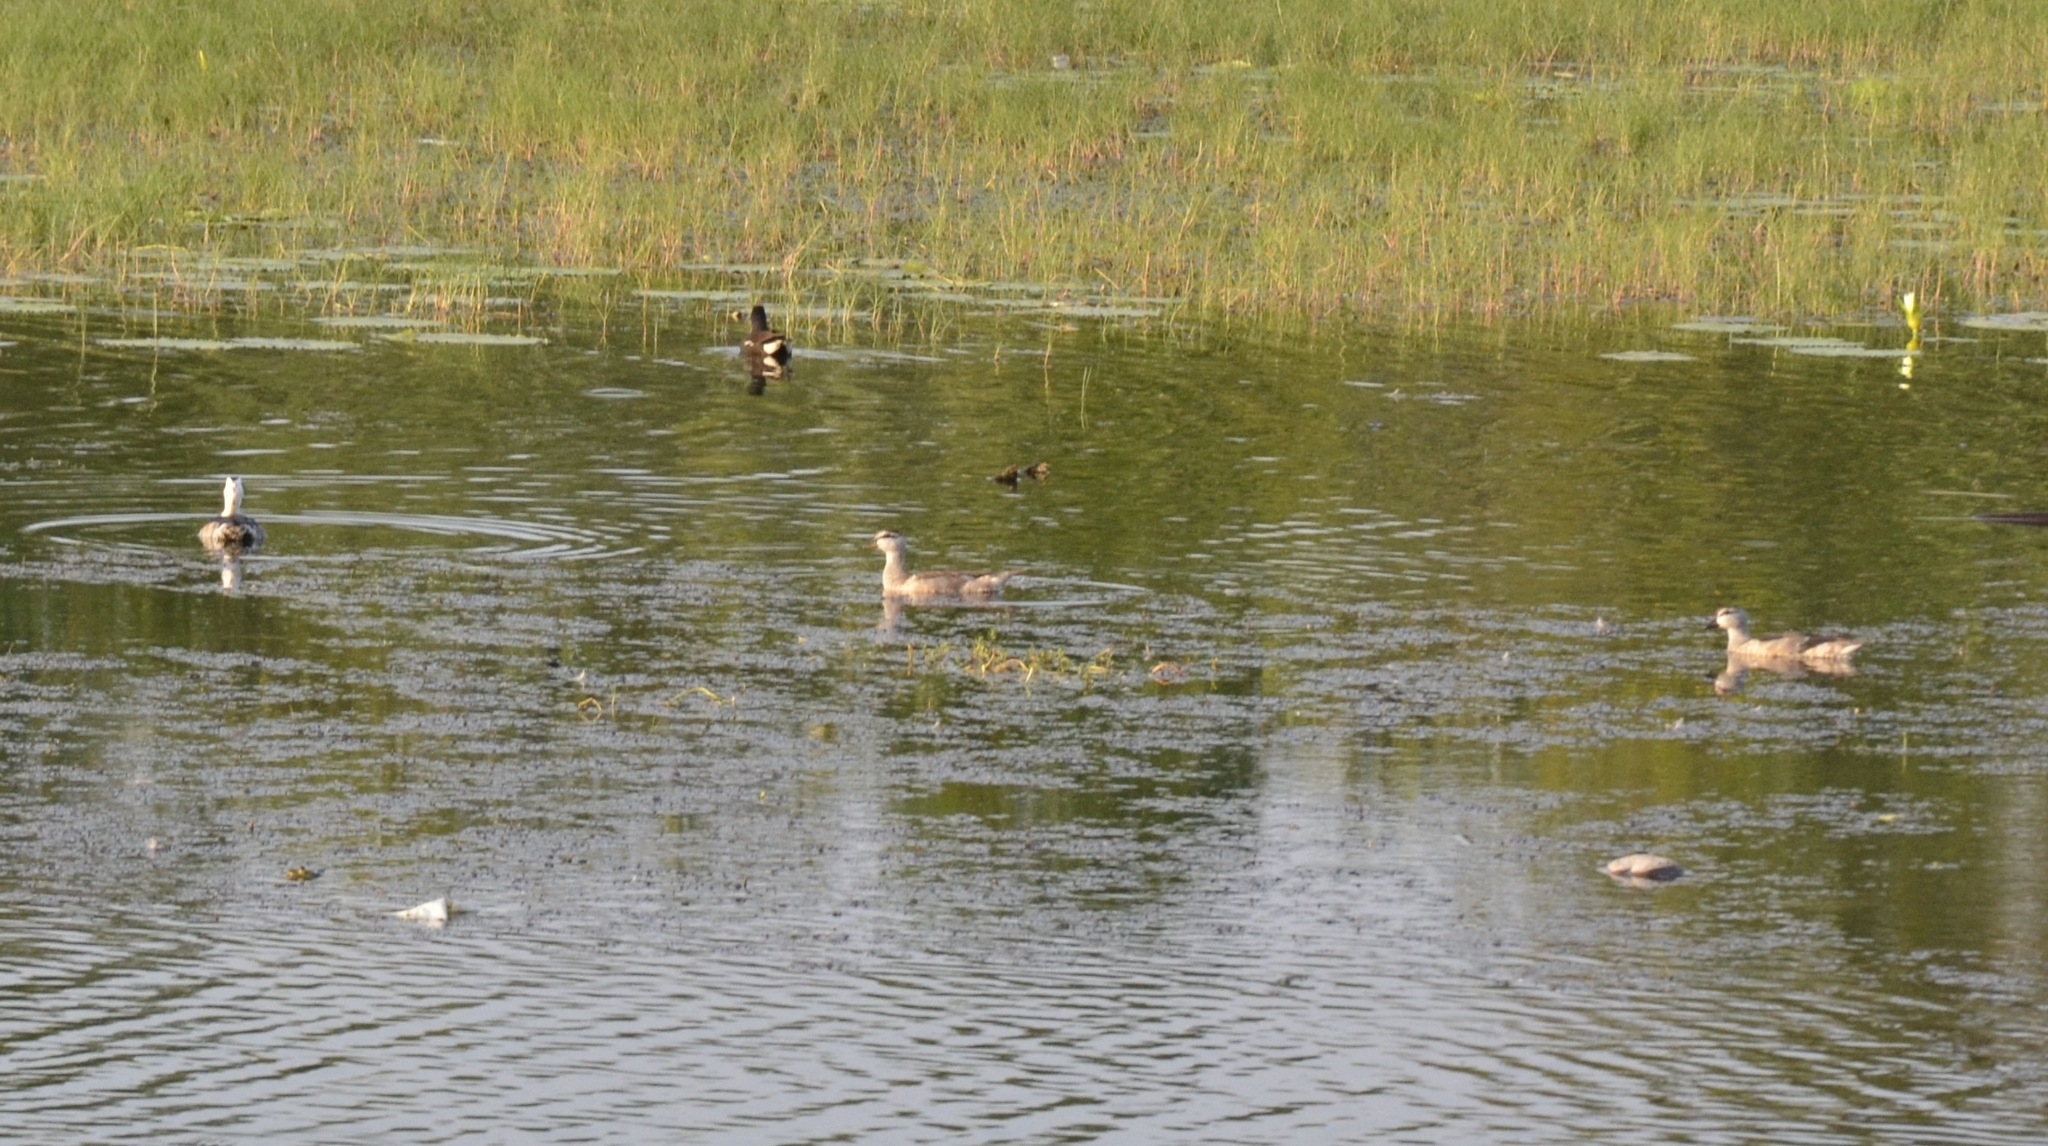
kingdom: Animalia
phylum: Chordata
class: Aves
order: Anseriformes
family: Anatidae
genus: Nettapus
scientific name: Nettapus coromandelianus
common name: Cotton pygmy-goose
